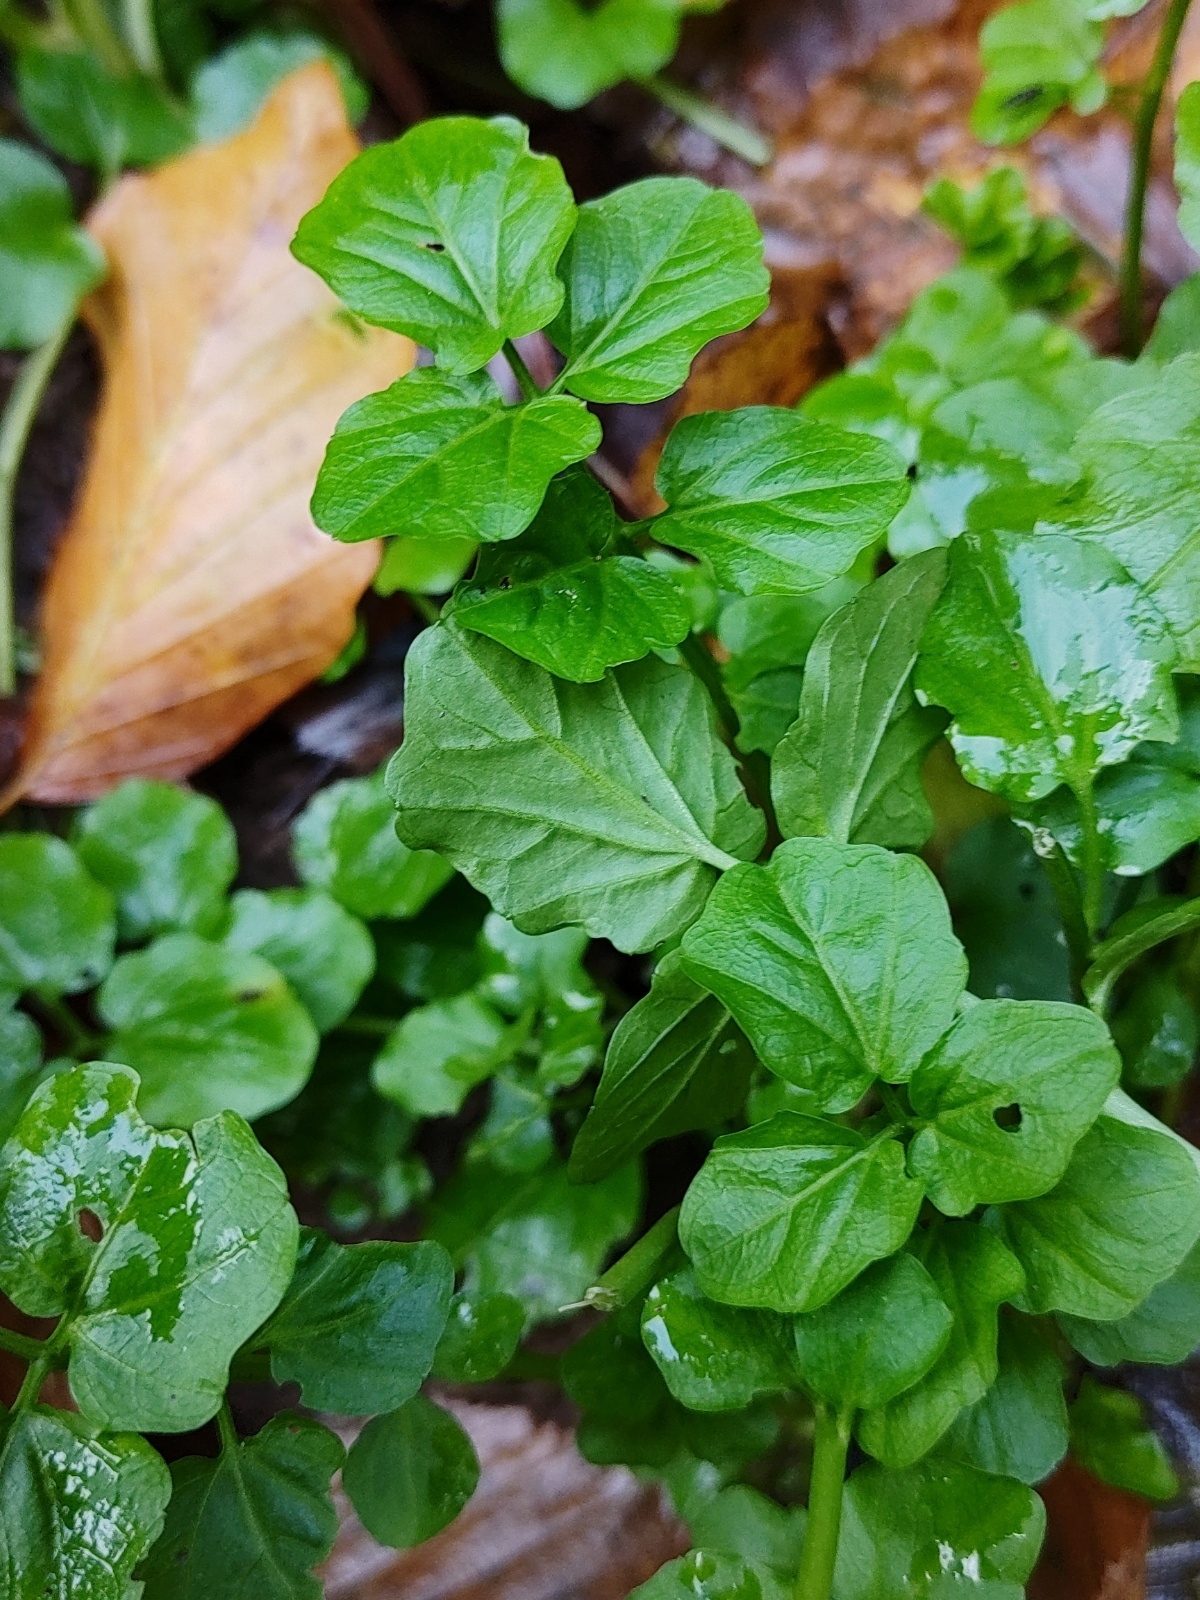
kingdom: Plantae
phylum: Tracheophyta
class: Magnoliopsida
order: Brassicales
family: Brassicaceae
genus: Nasturtium
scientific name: Nasturtium officinale
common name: Watercress
